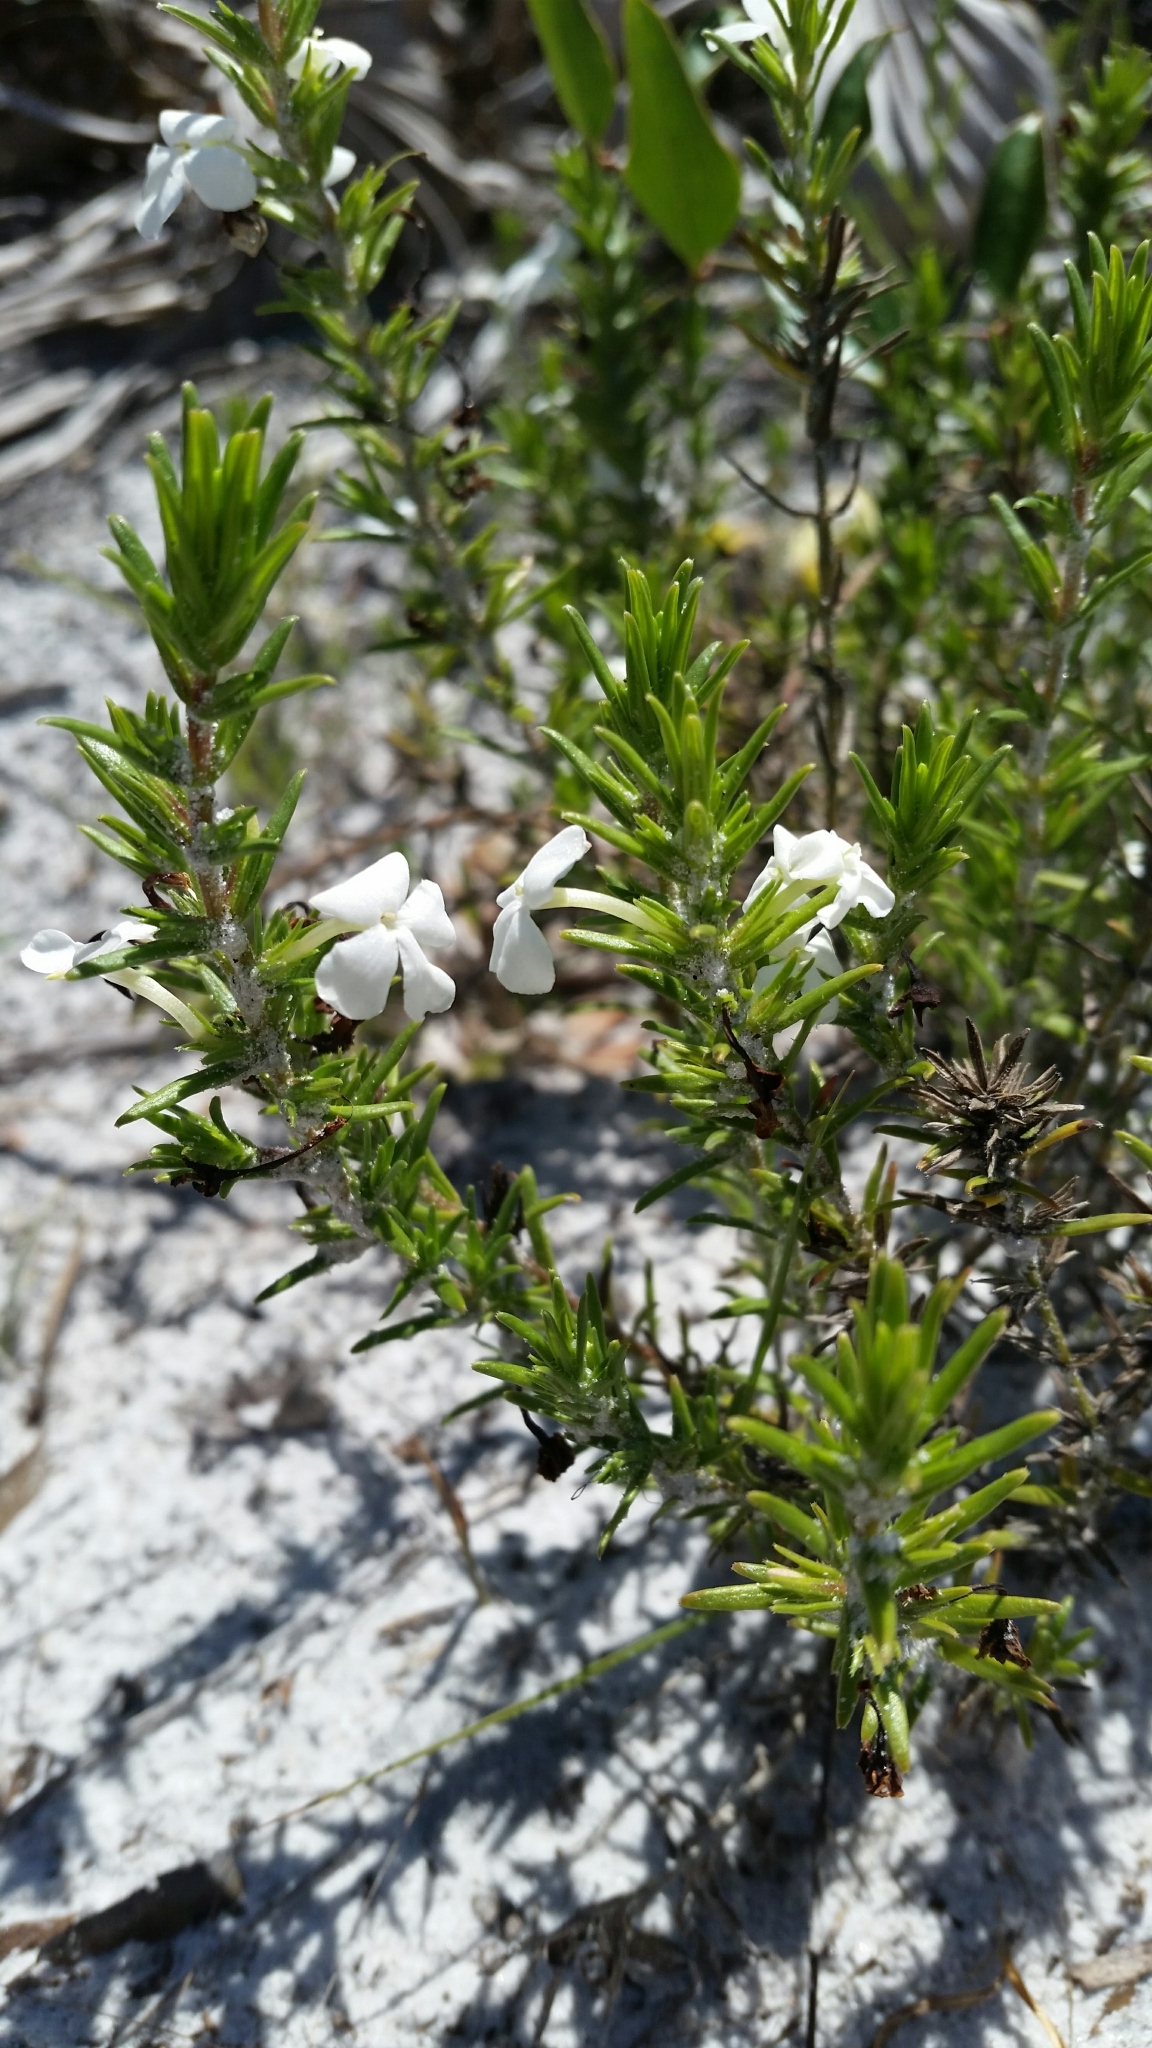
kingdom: Plantae
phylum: Tracheophyta
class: Magnoliopsida
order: Lamiales
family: Plantaginaceae
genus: Gratiola
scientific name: Gratiola hispida
